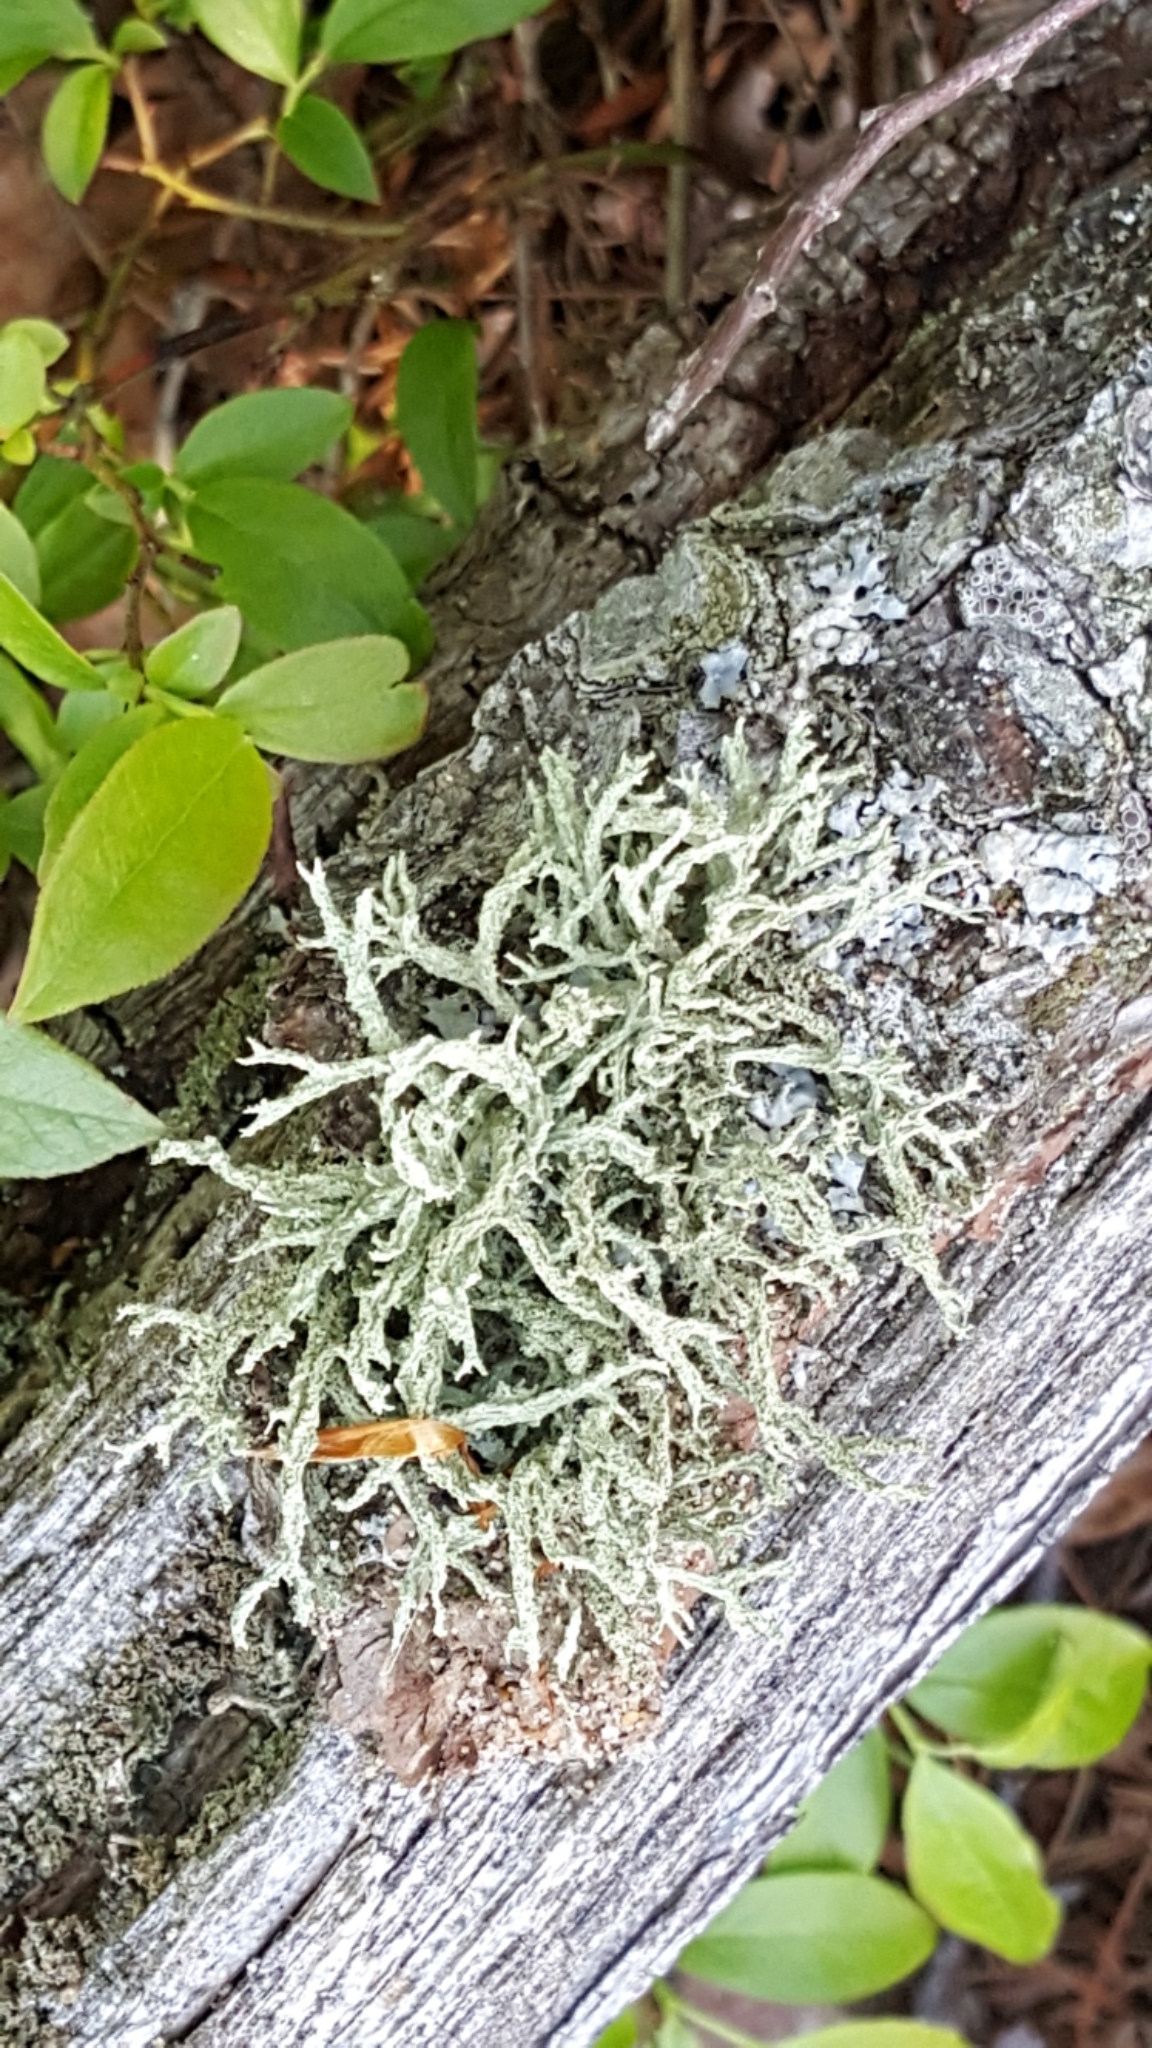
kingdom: Fungi
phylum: Ascomycota
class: Lecanoromycetes
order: Lecanorales
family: Parmeliaceae
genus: Evernia
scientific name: Evernia mesomorpha
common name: Boreal oak moss lichen
